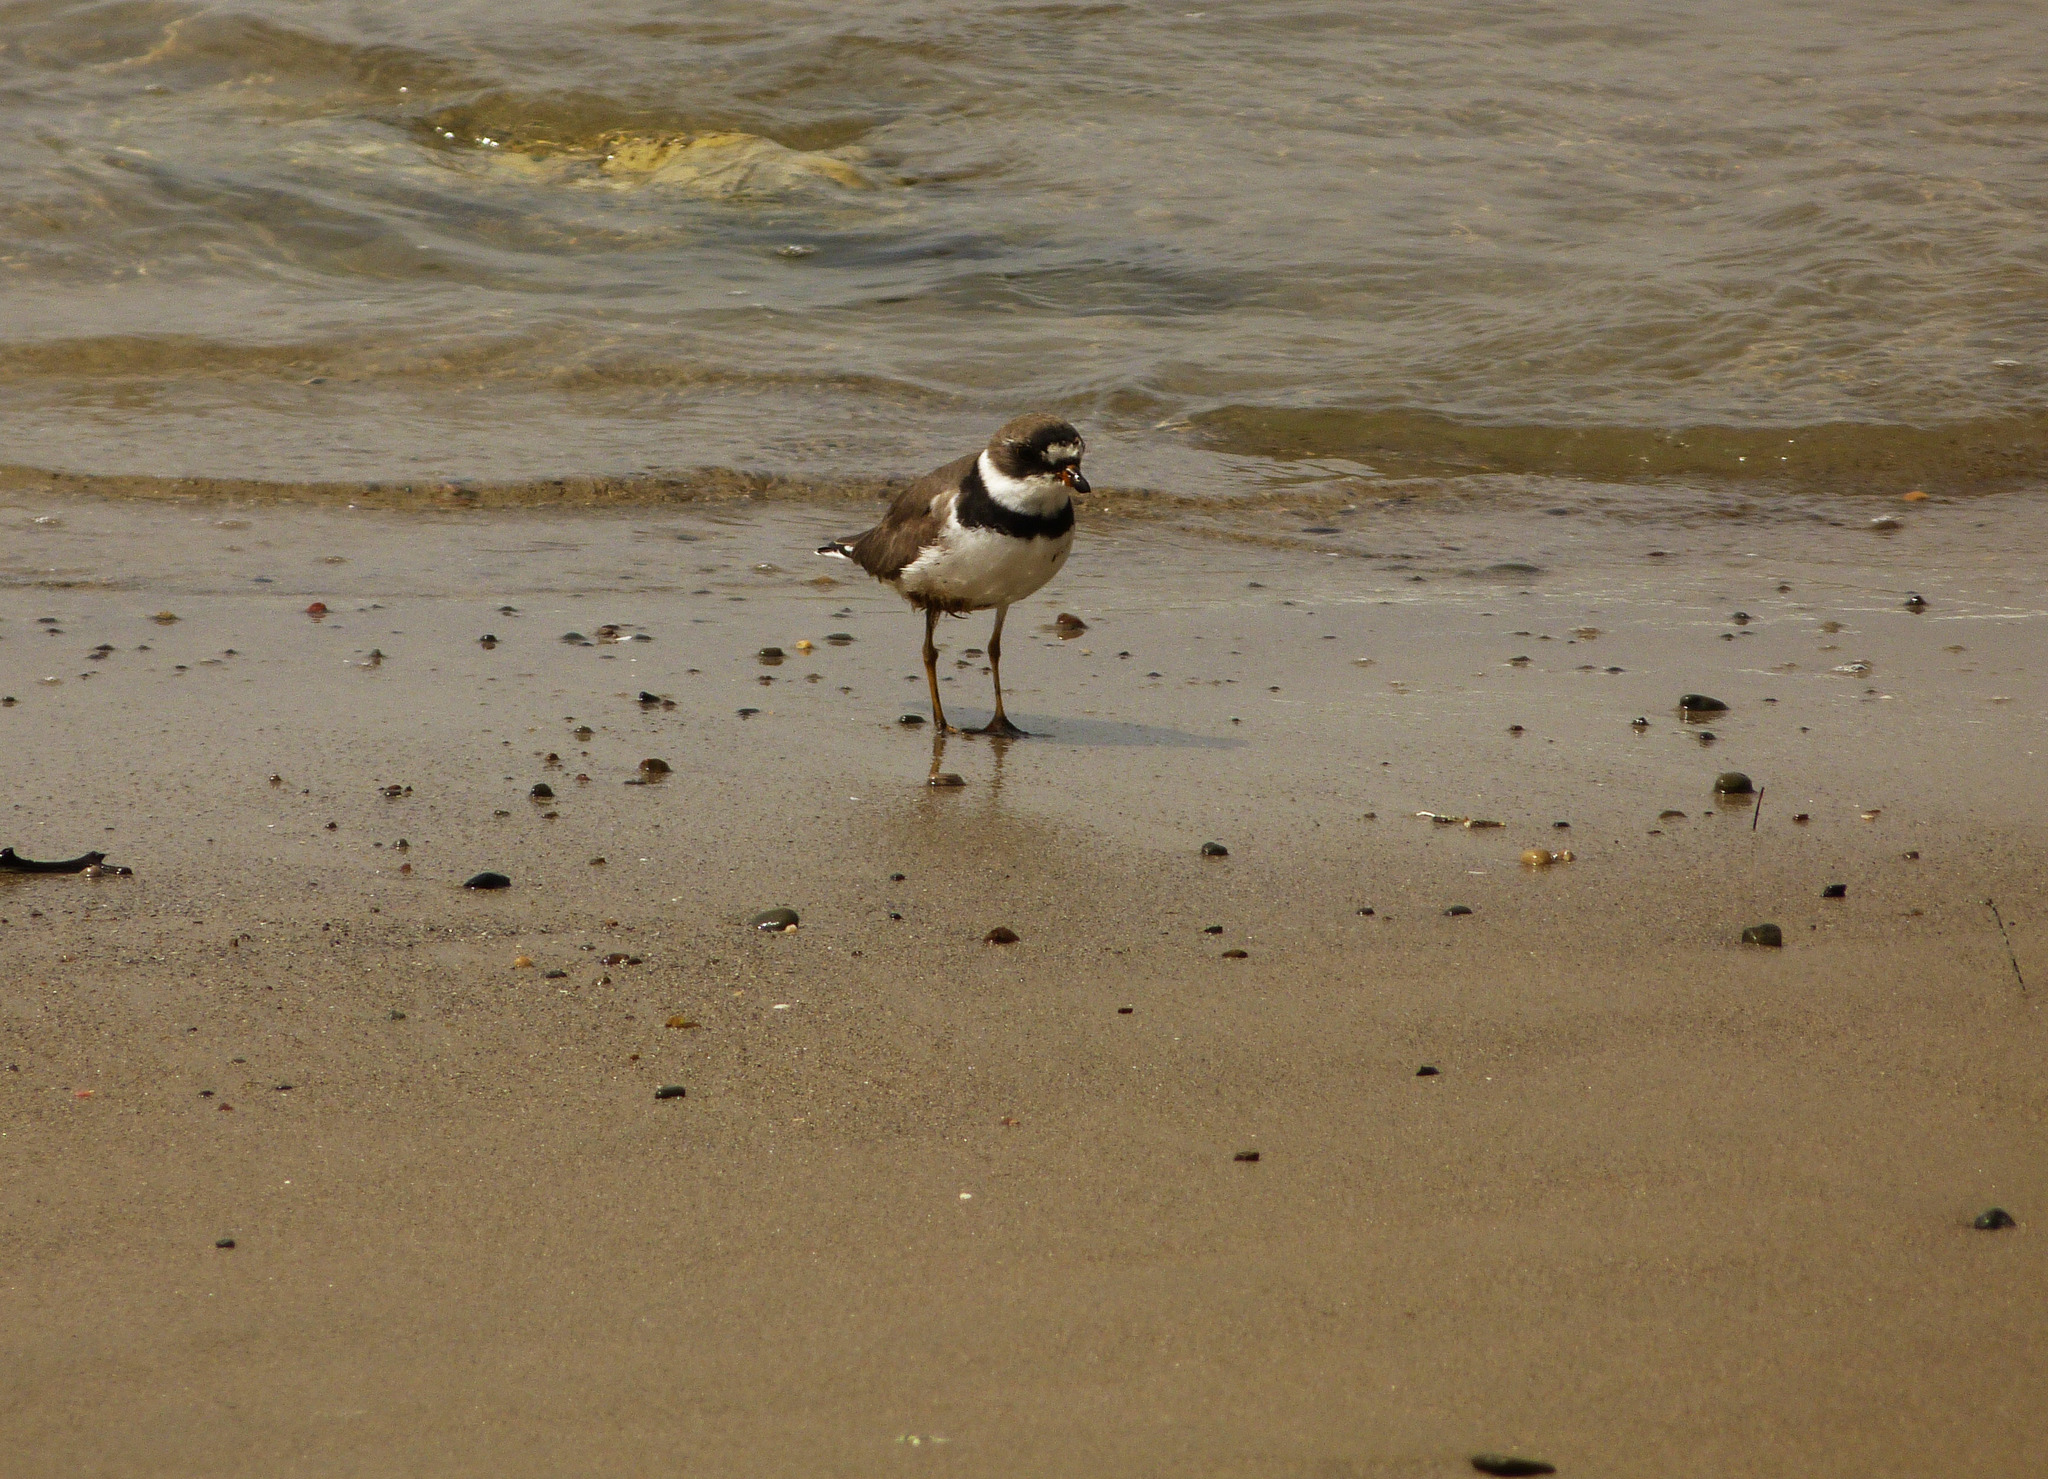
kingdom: Animalia
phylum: Chordata
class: Aves
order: Charadriiformes
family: Charadriidae
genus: Charadrius
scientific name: Charadrius semipalmatus
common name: Semipalmated plover
